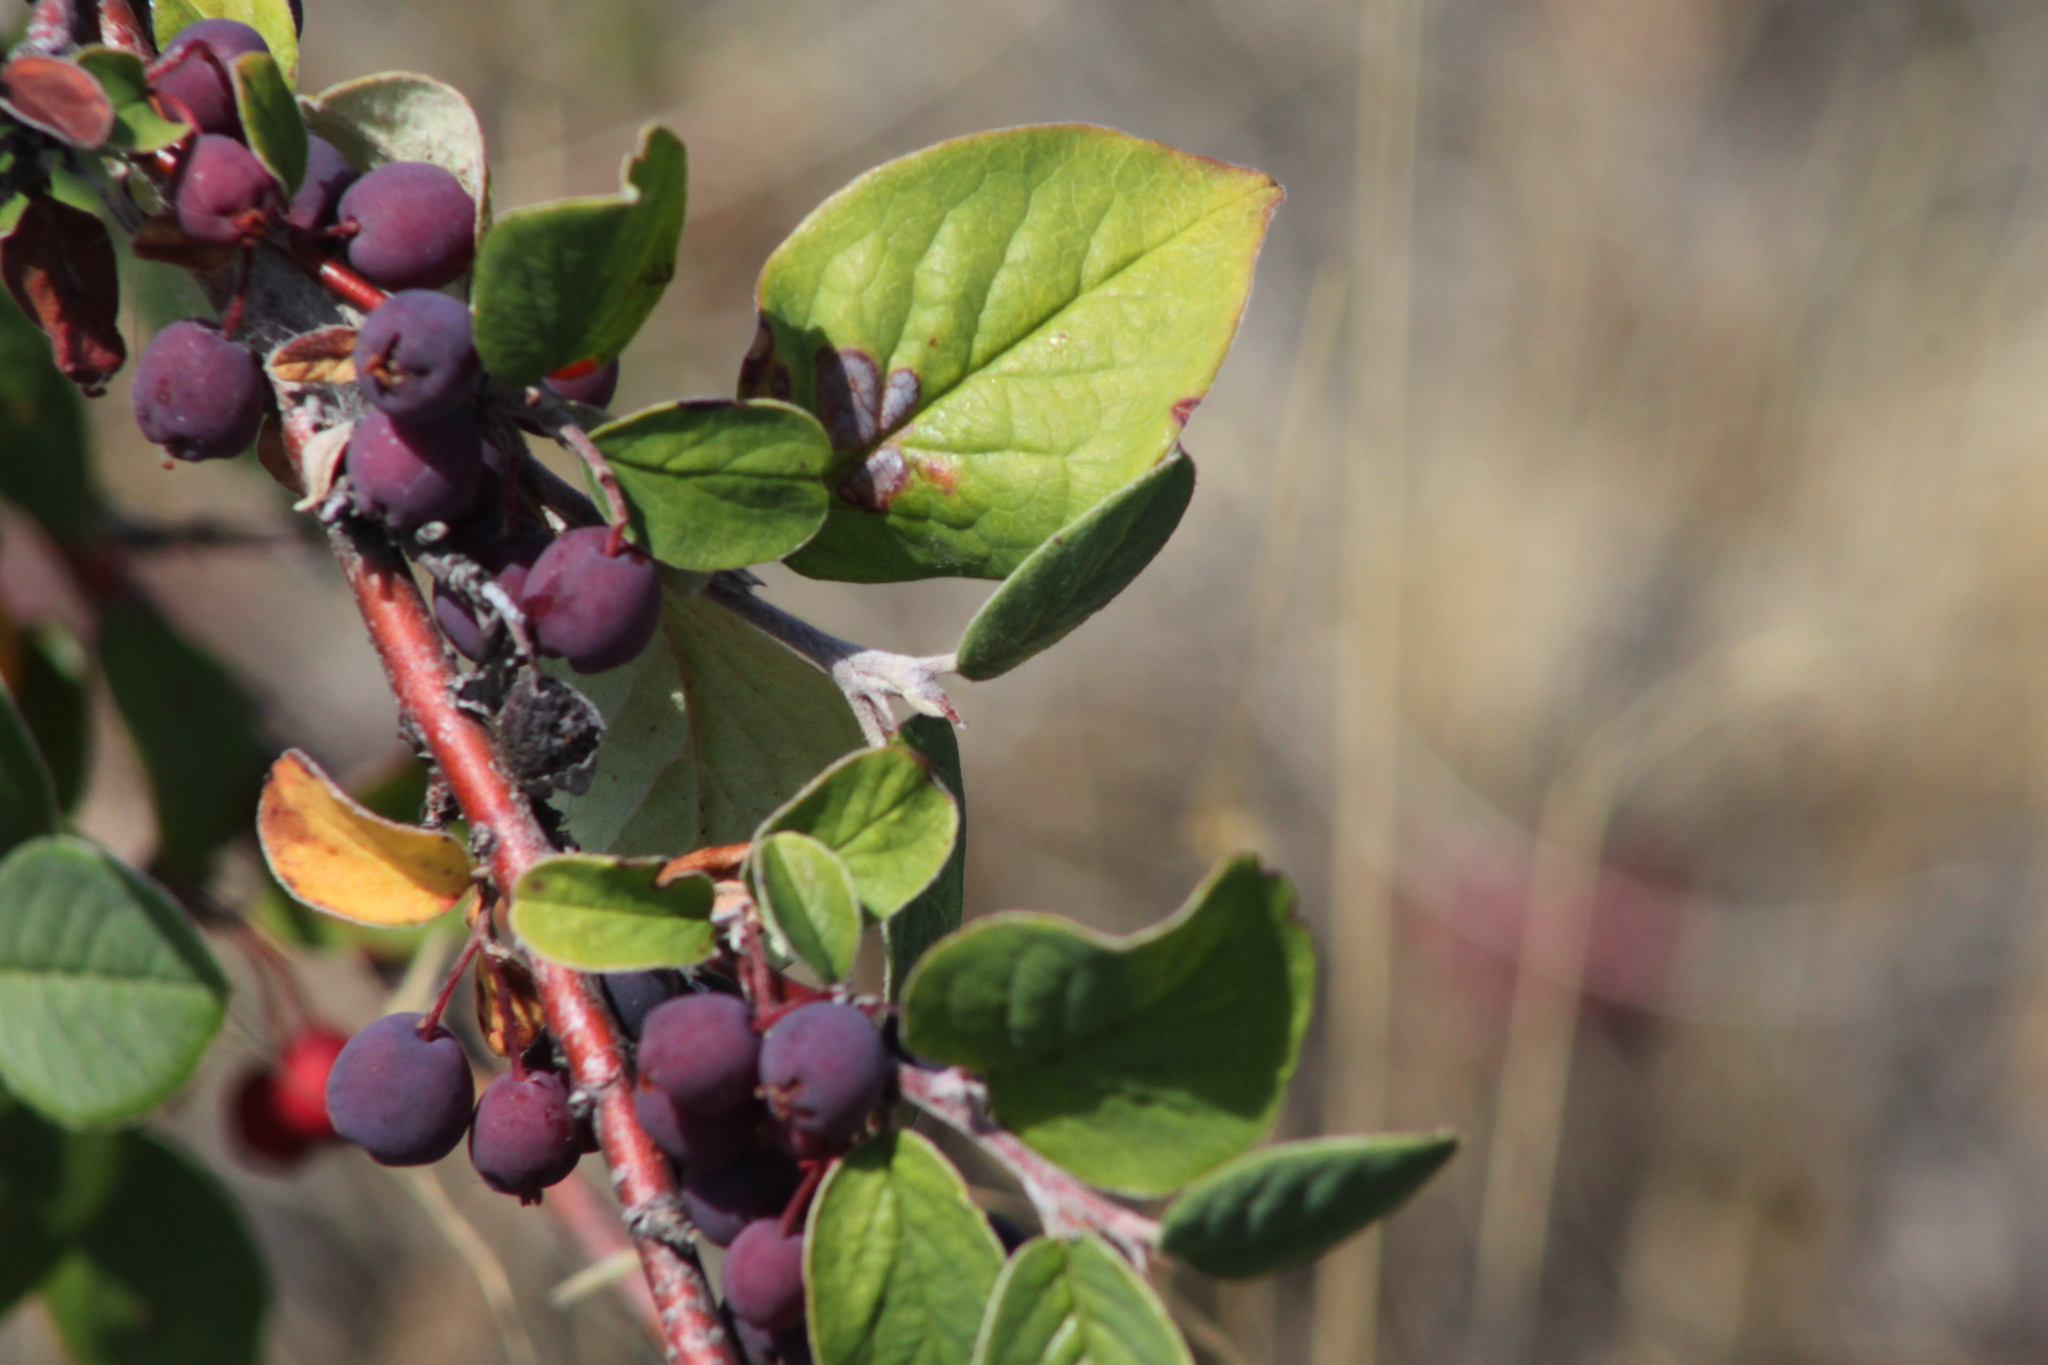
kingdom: Plantae
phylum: Tracheophyta
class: Magnoliopsida
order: Rosales
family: Rosaceae
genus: Cotoneaster
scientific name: Cotoneaster melanocarpus
